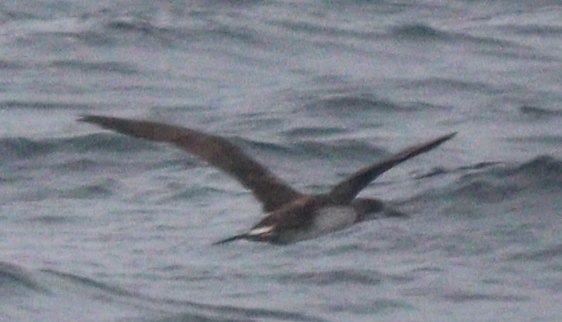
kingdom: Animalia
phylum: Chordata
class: Aves
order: Suliformes
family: Sulidae
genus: Morus
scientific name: Morus bassanus
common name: Northern gannet
